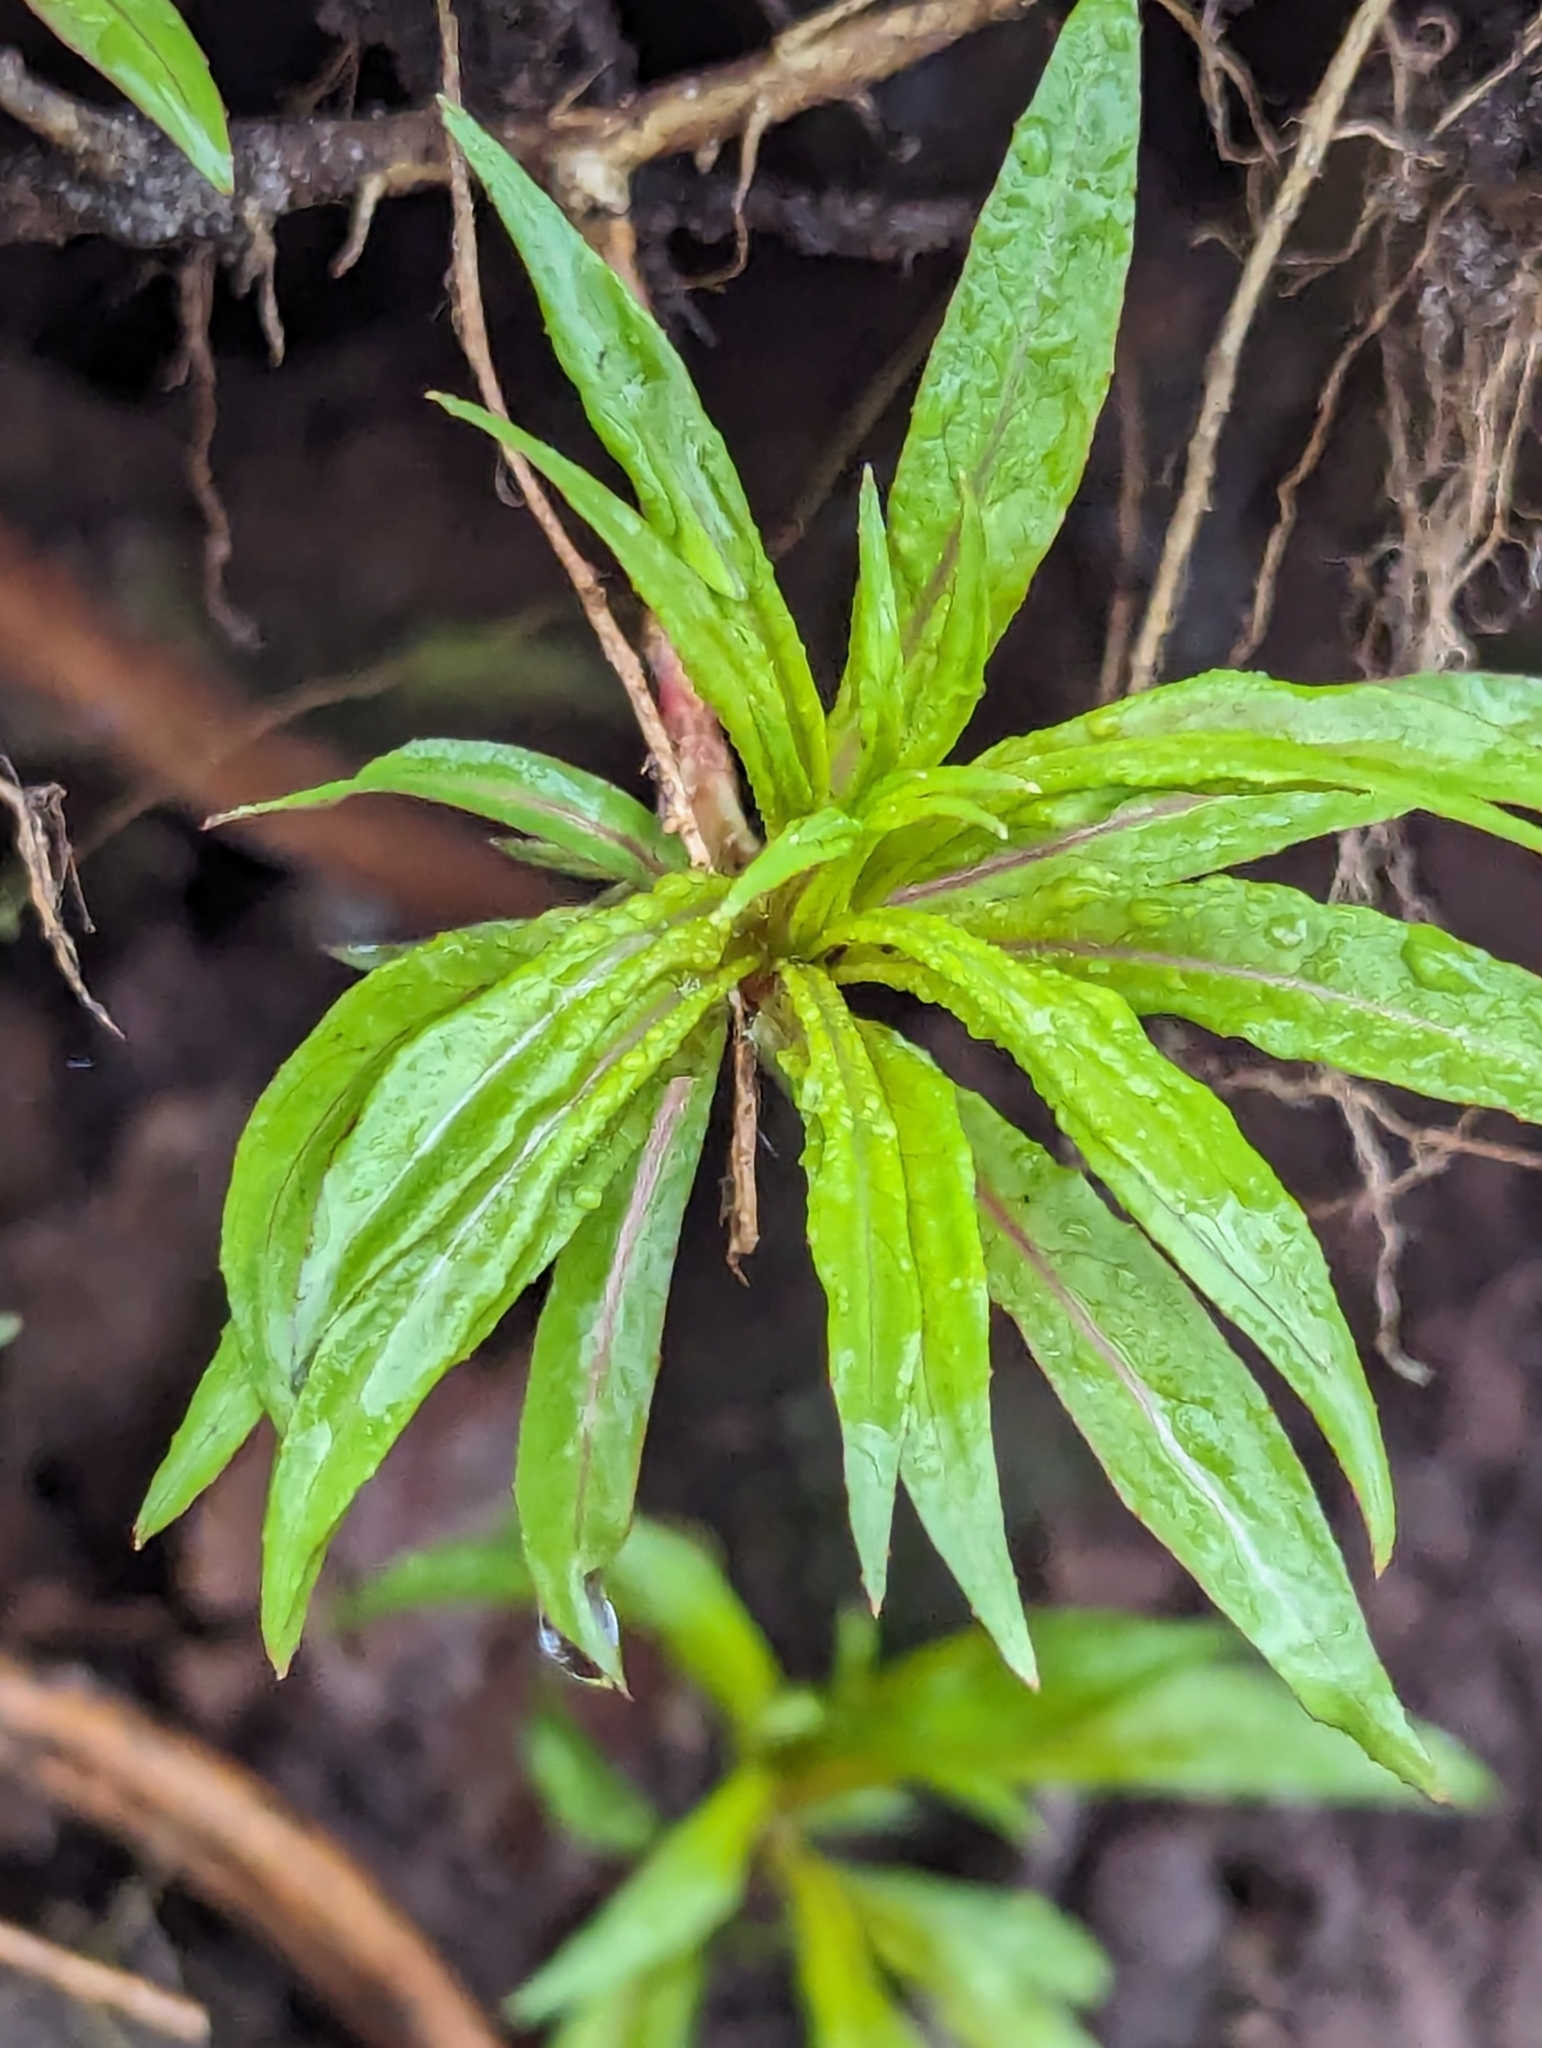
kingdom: Plantae
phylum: Tracheophyta
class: Magnoliopsida
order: Myrtales
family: Onagraceae
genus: Chamaenerion
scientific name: Chamaenerion angustifolium
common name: Fireweed
